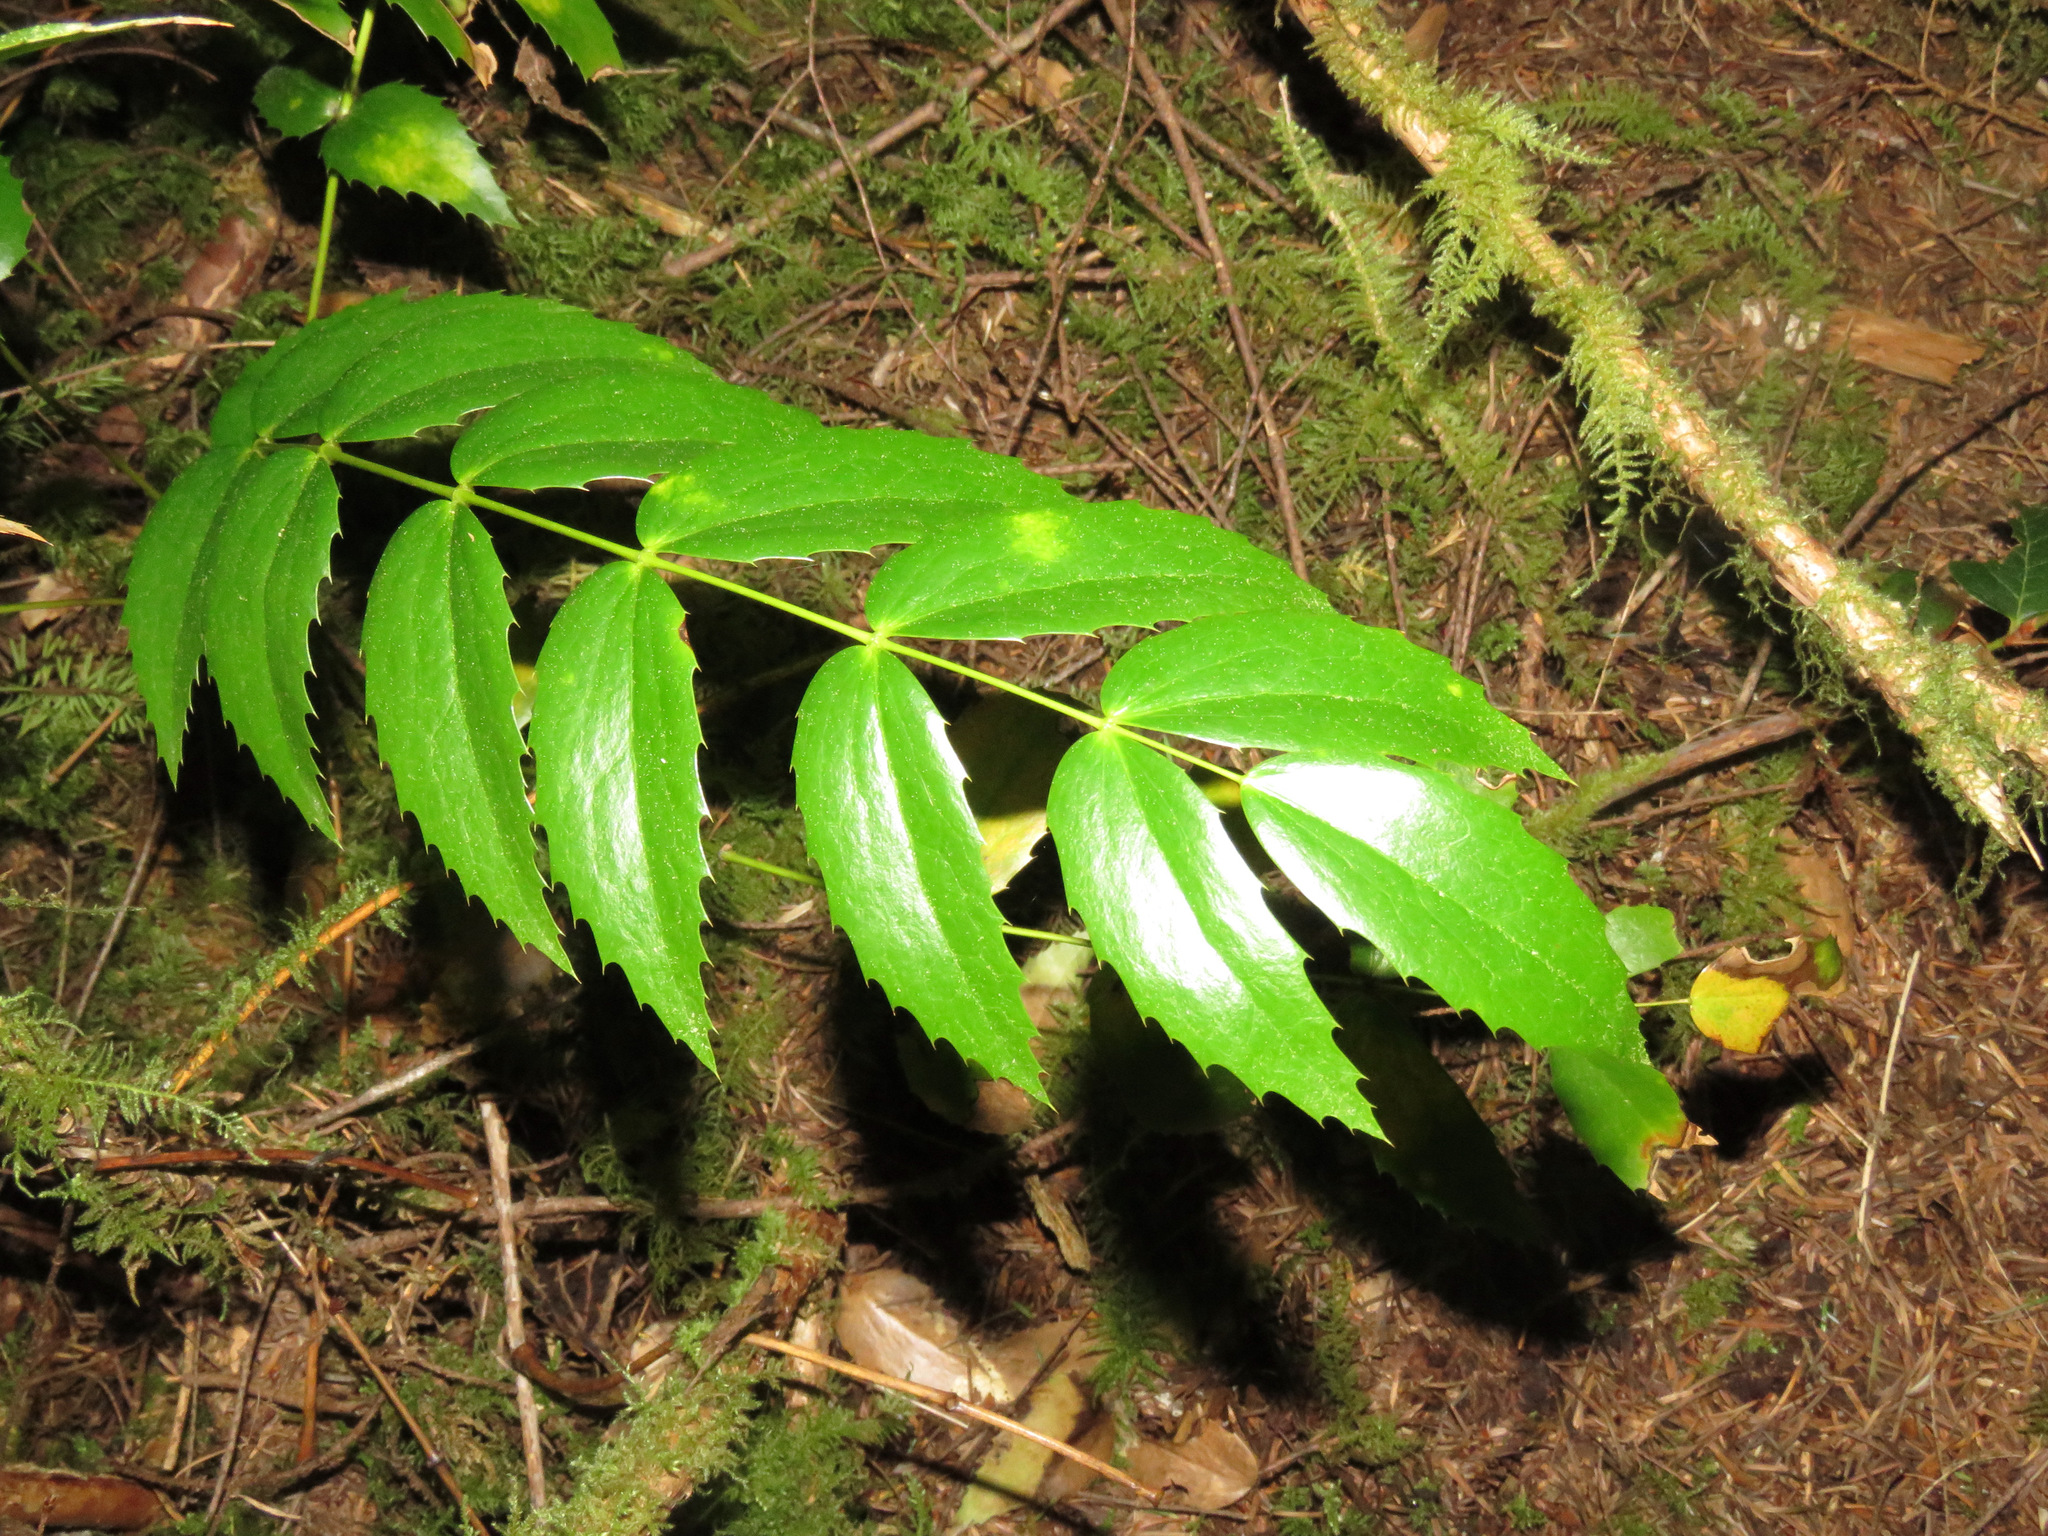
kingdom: Plantae
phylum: Tracheophyta
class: Magnoliopsida
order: Ranunculales
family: Berberidaceae
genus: Mahonia
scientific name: Mahonia nervosa
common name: Cascade oregon-grape
